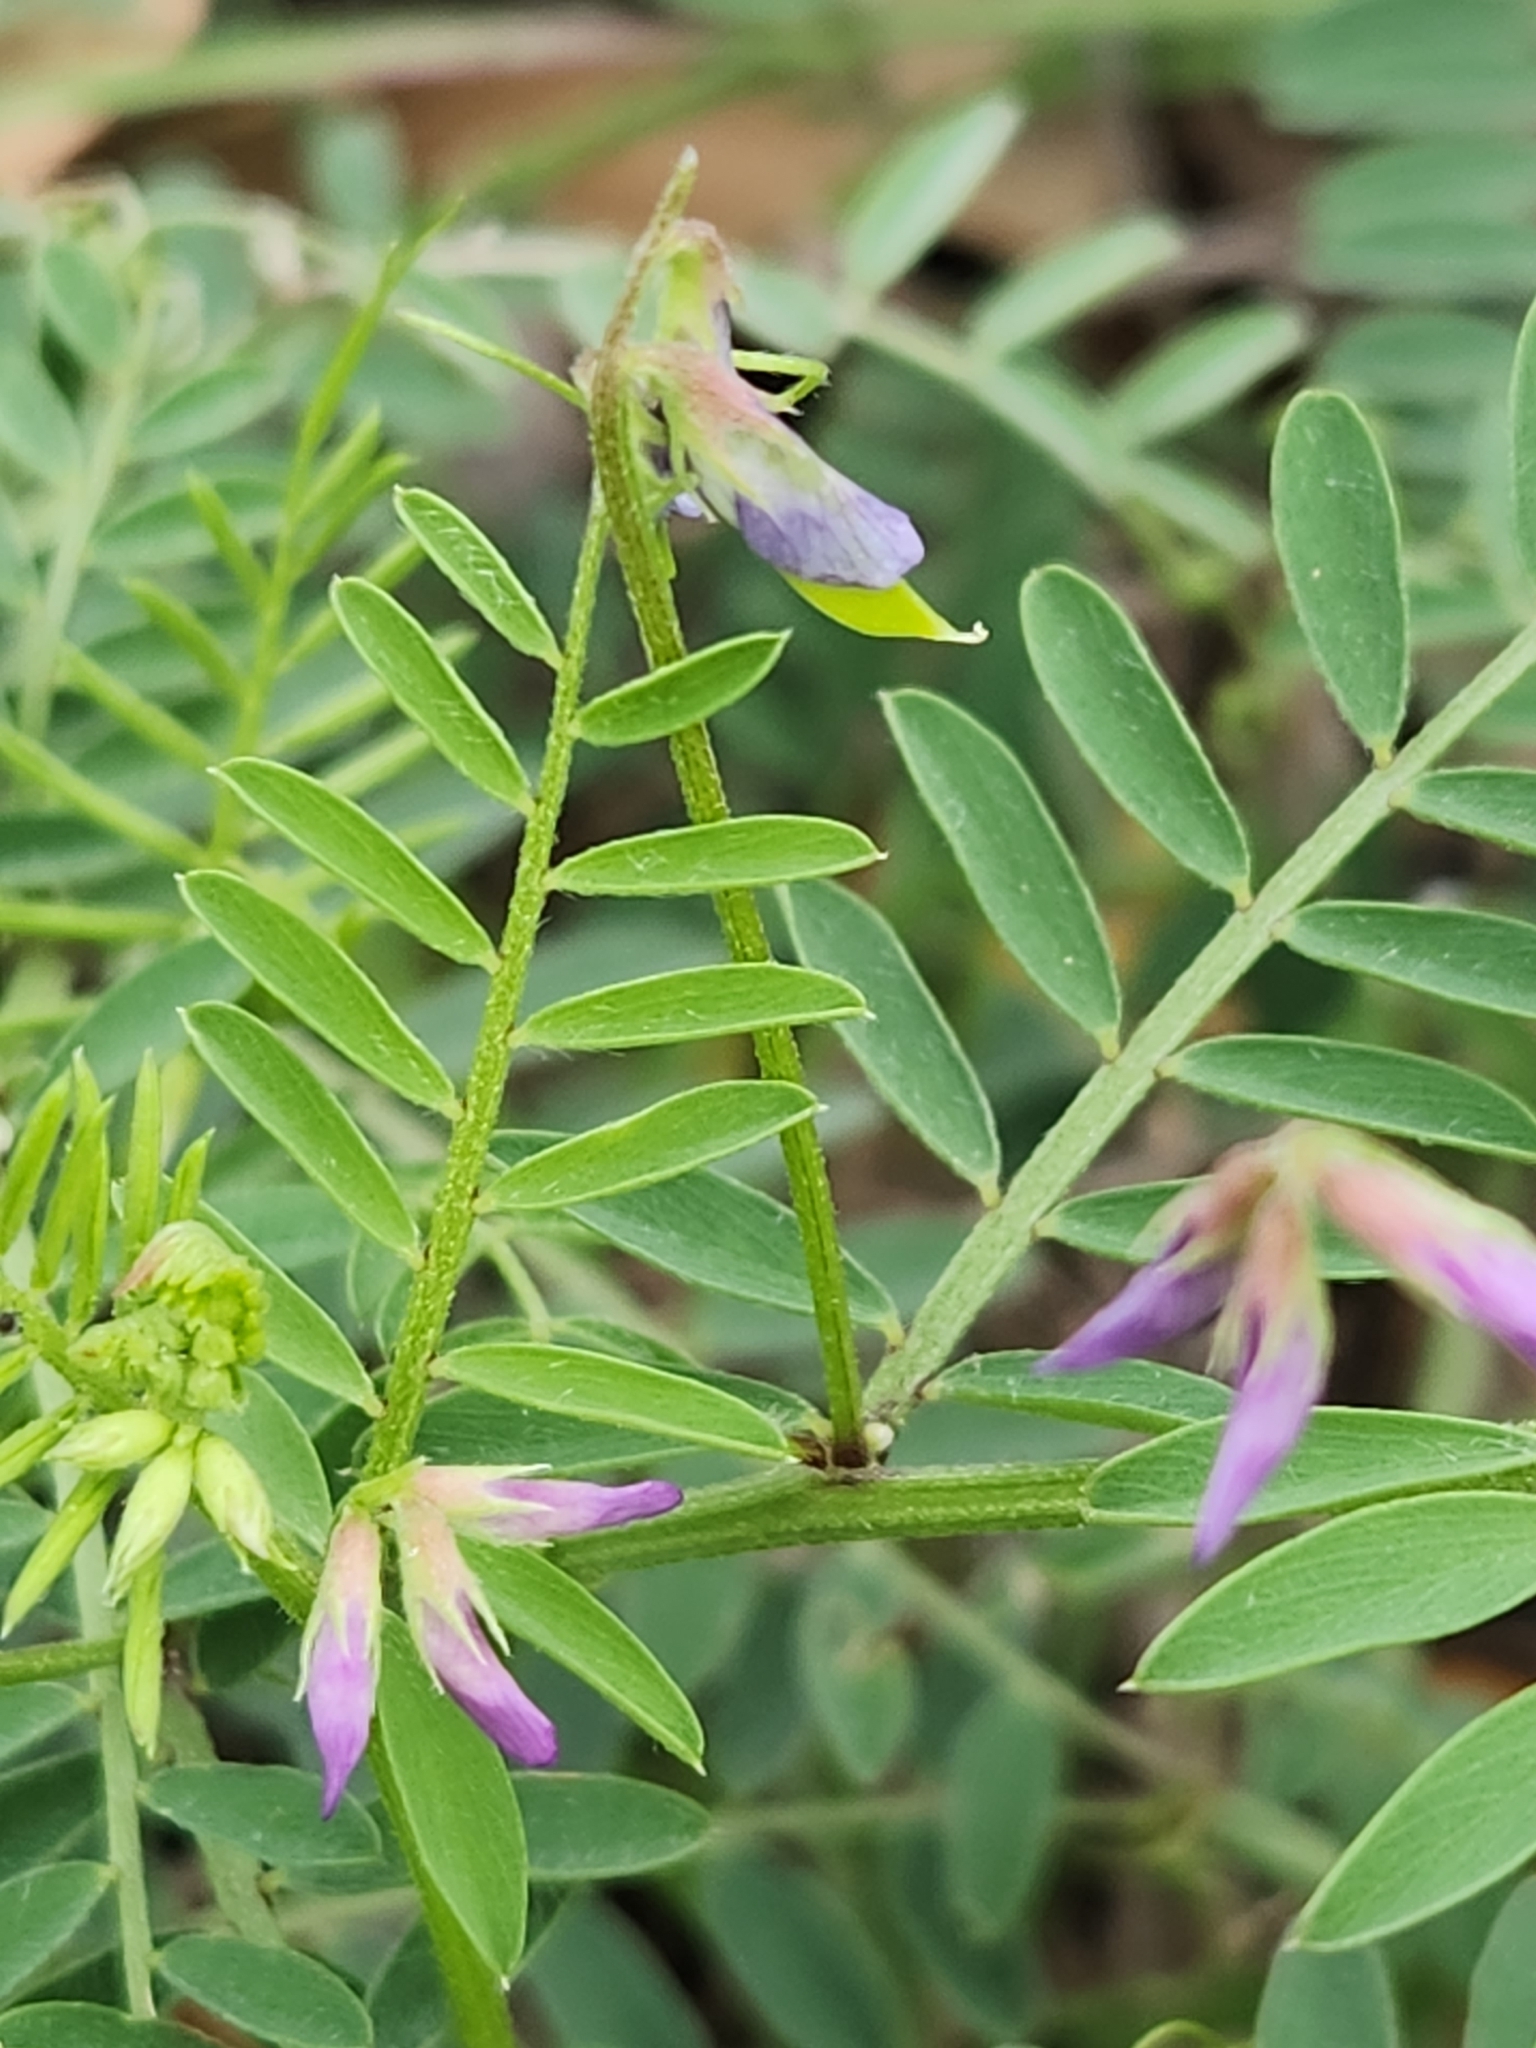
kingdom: Plantae
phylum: Tracheophyta
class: Magnoliopsida
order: Fabales
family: Fabaceae
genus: Vicia
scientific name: Vicia ludoviciana
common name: Louisiana vetch
